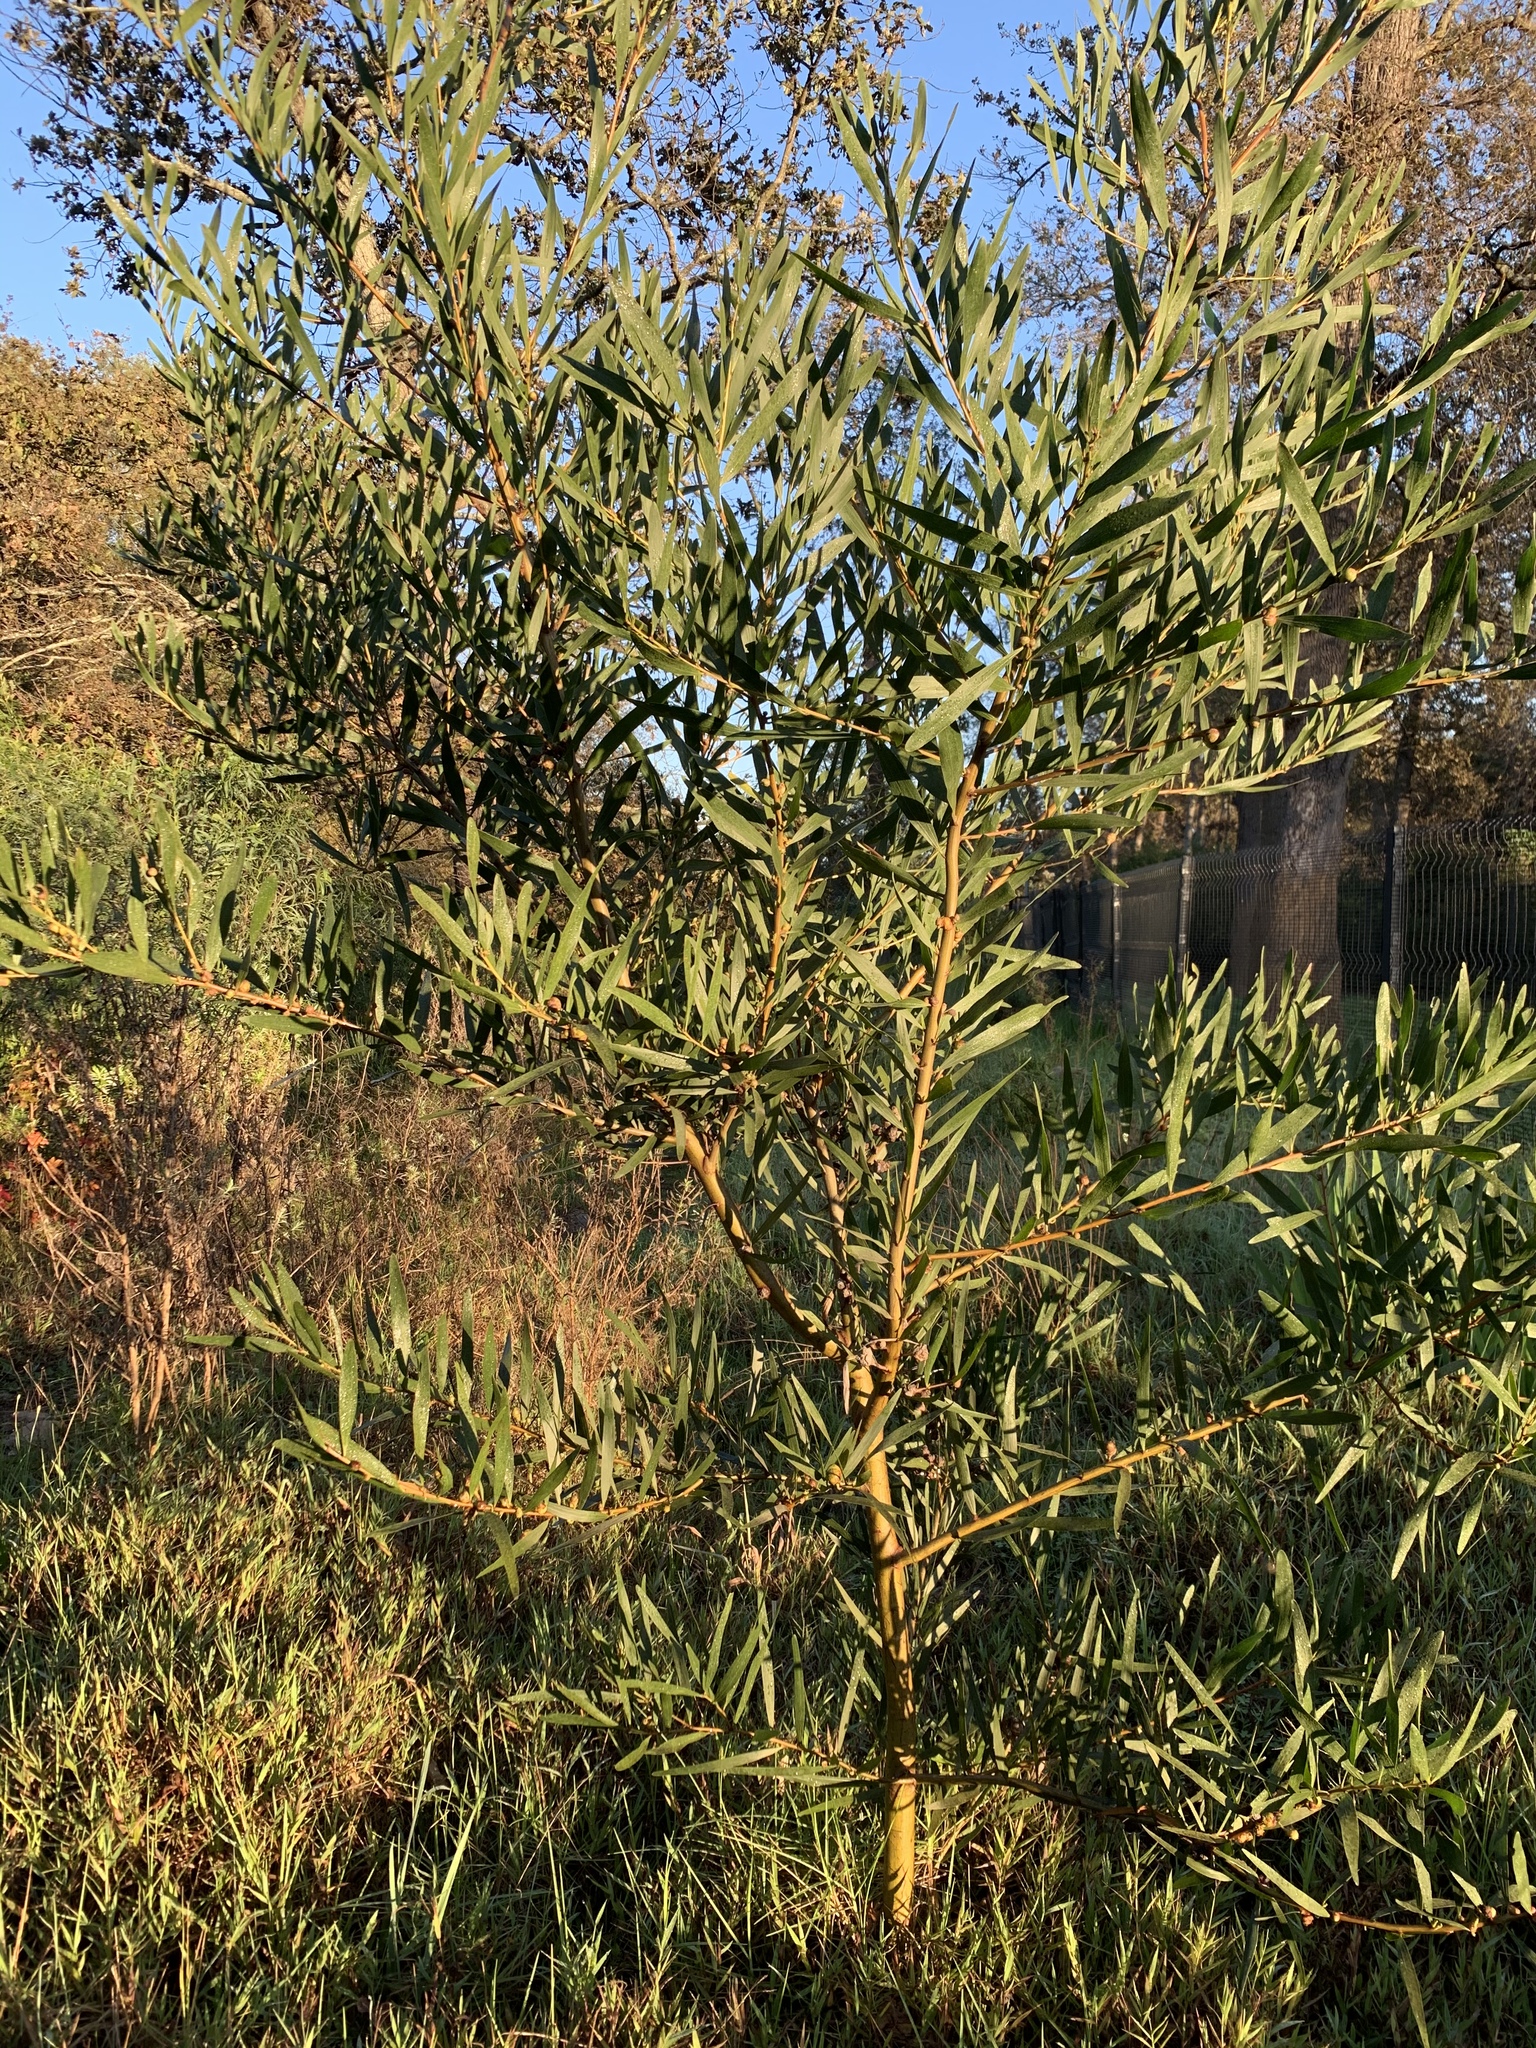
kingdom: Plantae
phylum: Tracheophyta
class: Magnoliopsida
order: Fabales
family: Fabaceae
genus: Acacia
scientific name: Acacia longifolia
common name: Sydney golden wattle
